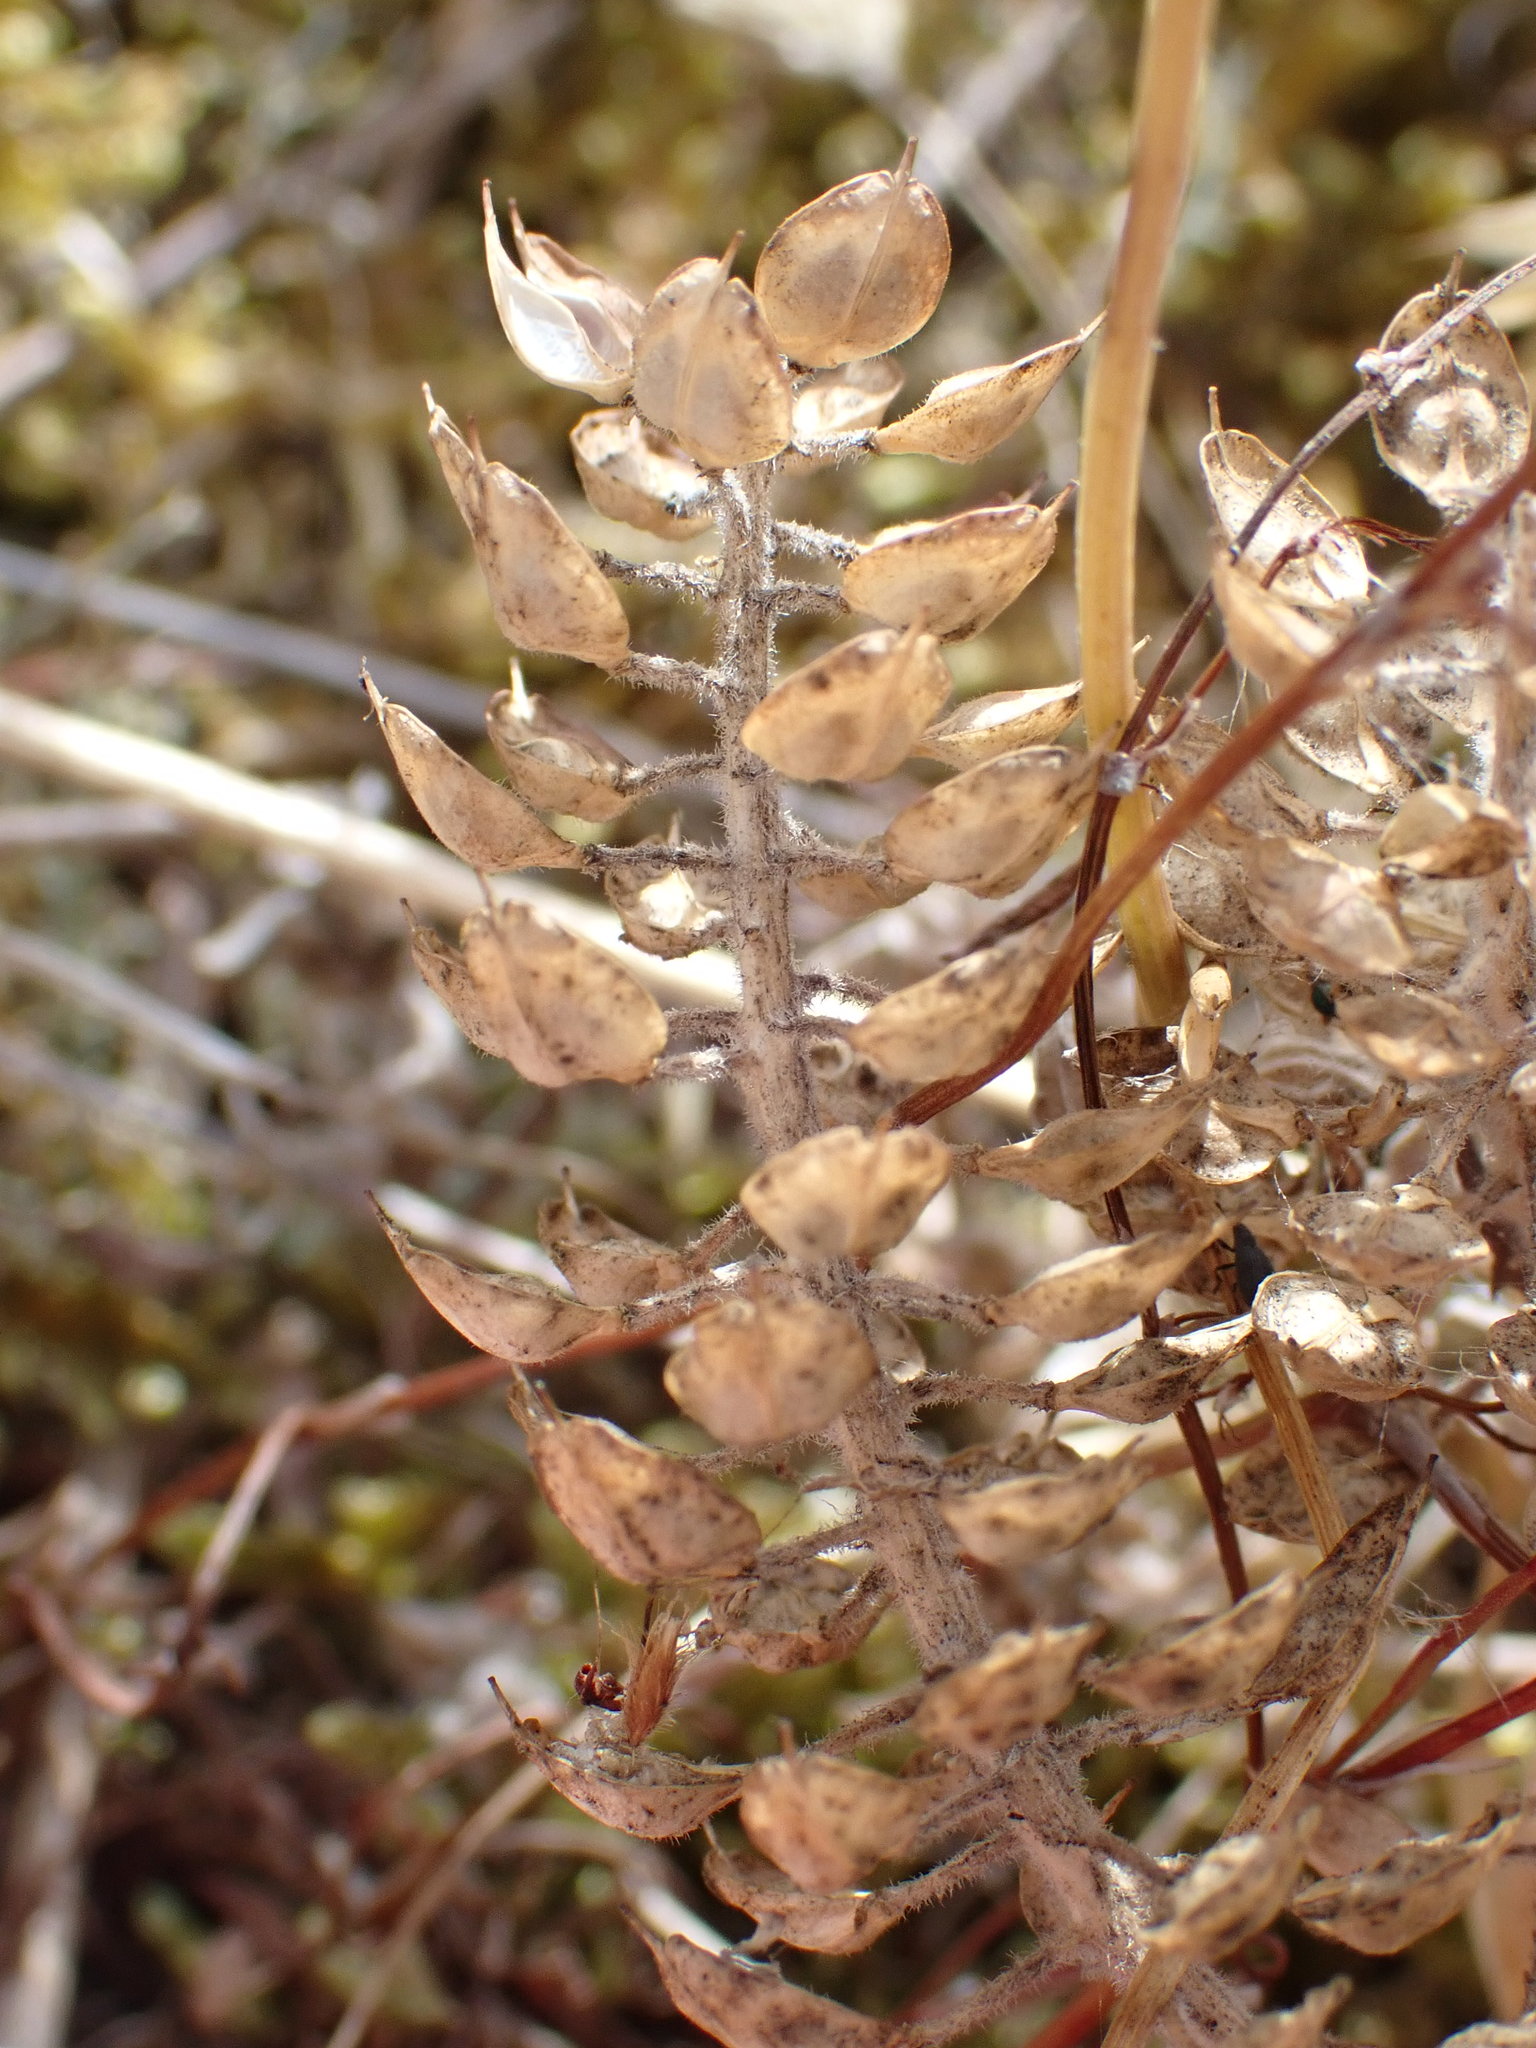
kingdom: Plantae
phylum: Tracheophyta
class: Magnoliopsida
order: Brassicales
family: Brassicaceae
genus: Lepidium
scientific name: Lepidium heterophyllum
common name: Smith's pepperwort
